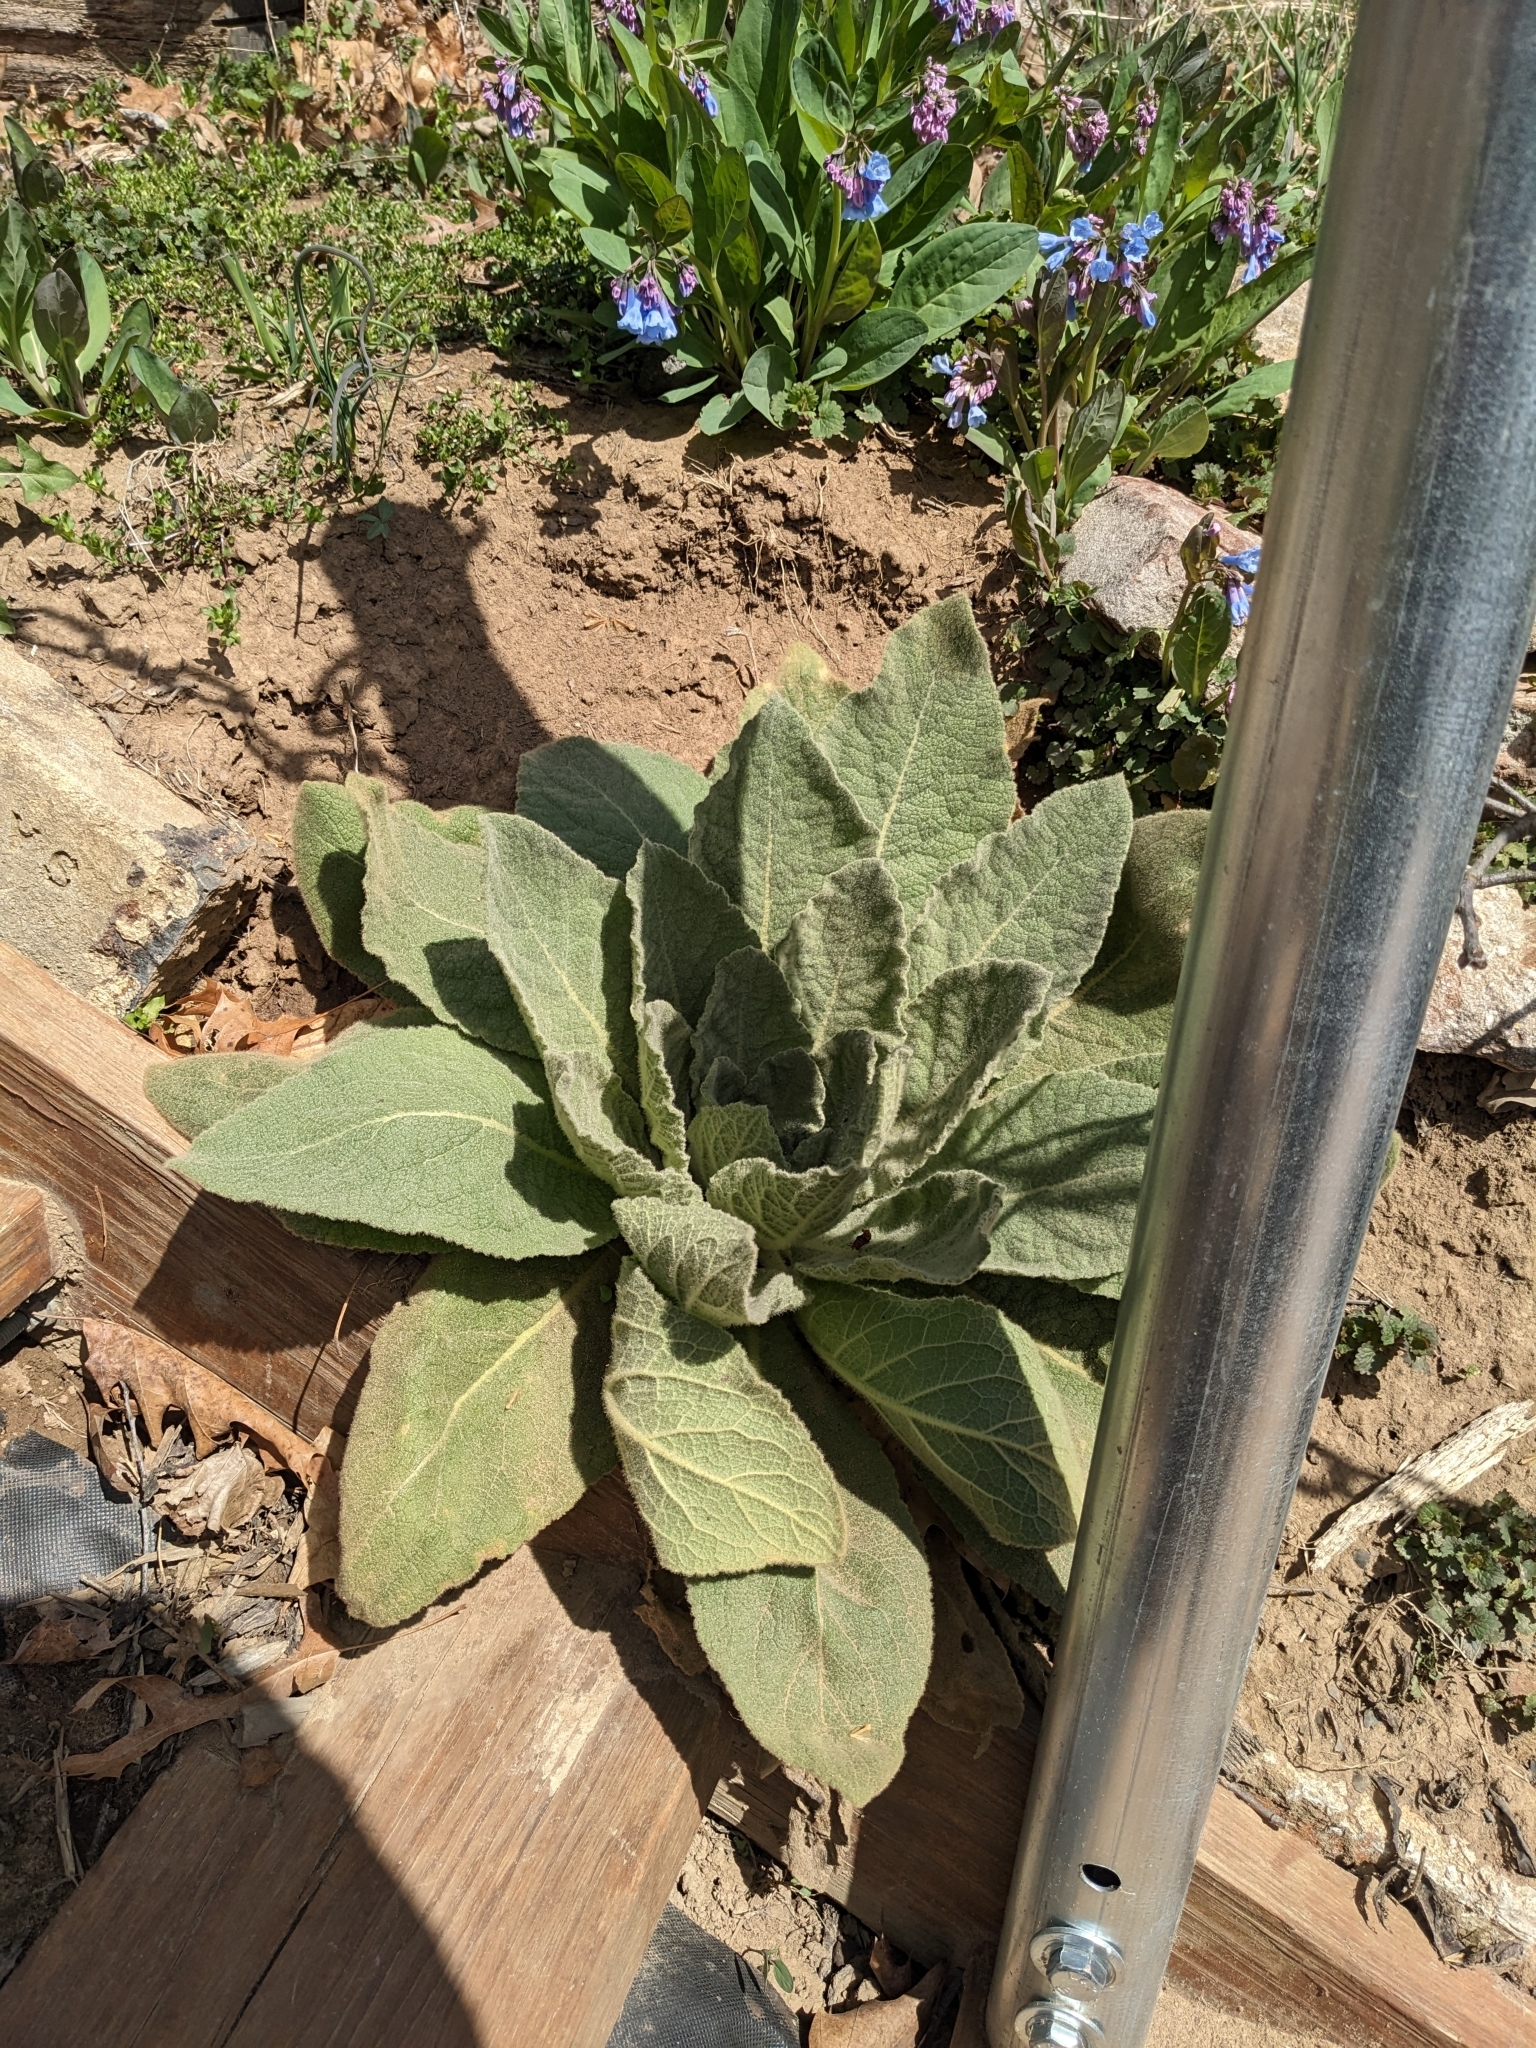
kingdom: Plantae
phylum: Tracheophyta
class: Magnoliopsida
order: Lamiales
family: Scrophulariaceae
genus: Verbascum
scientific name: Verbascum thapsus
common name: Common mullein
